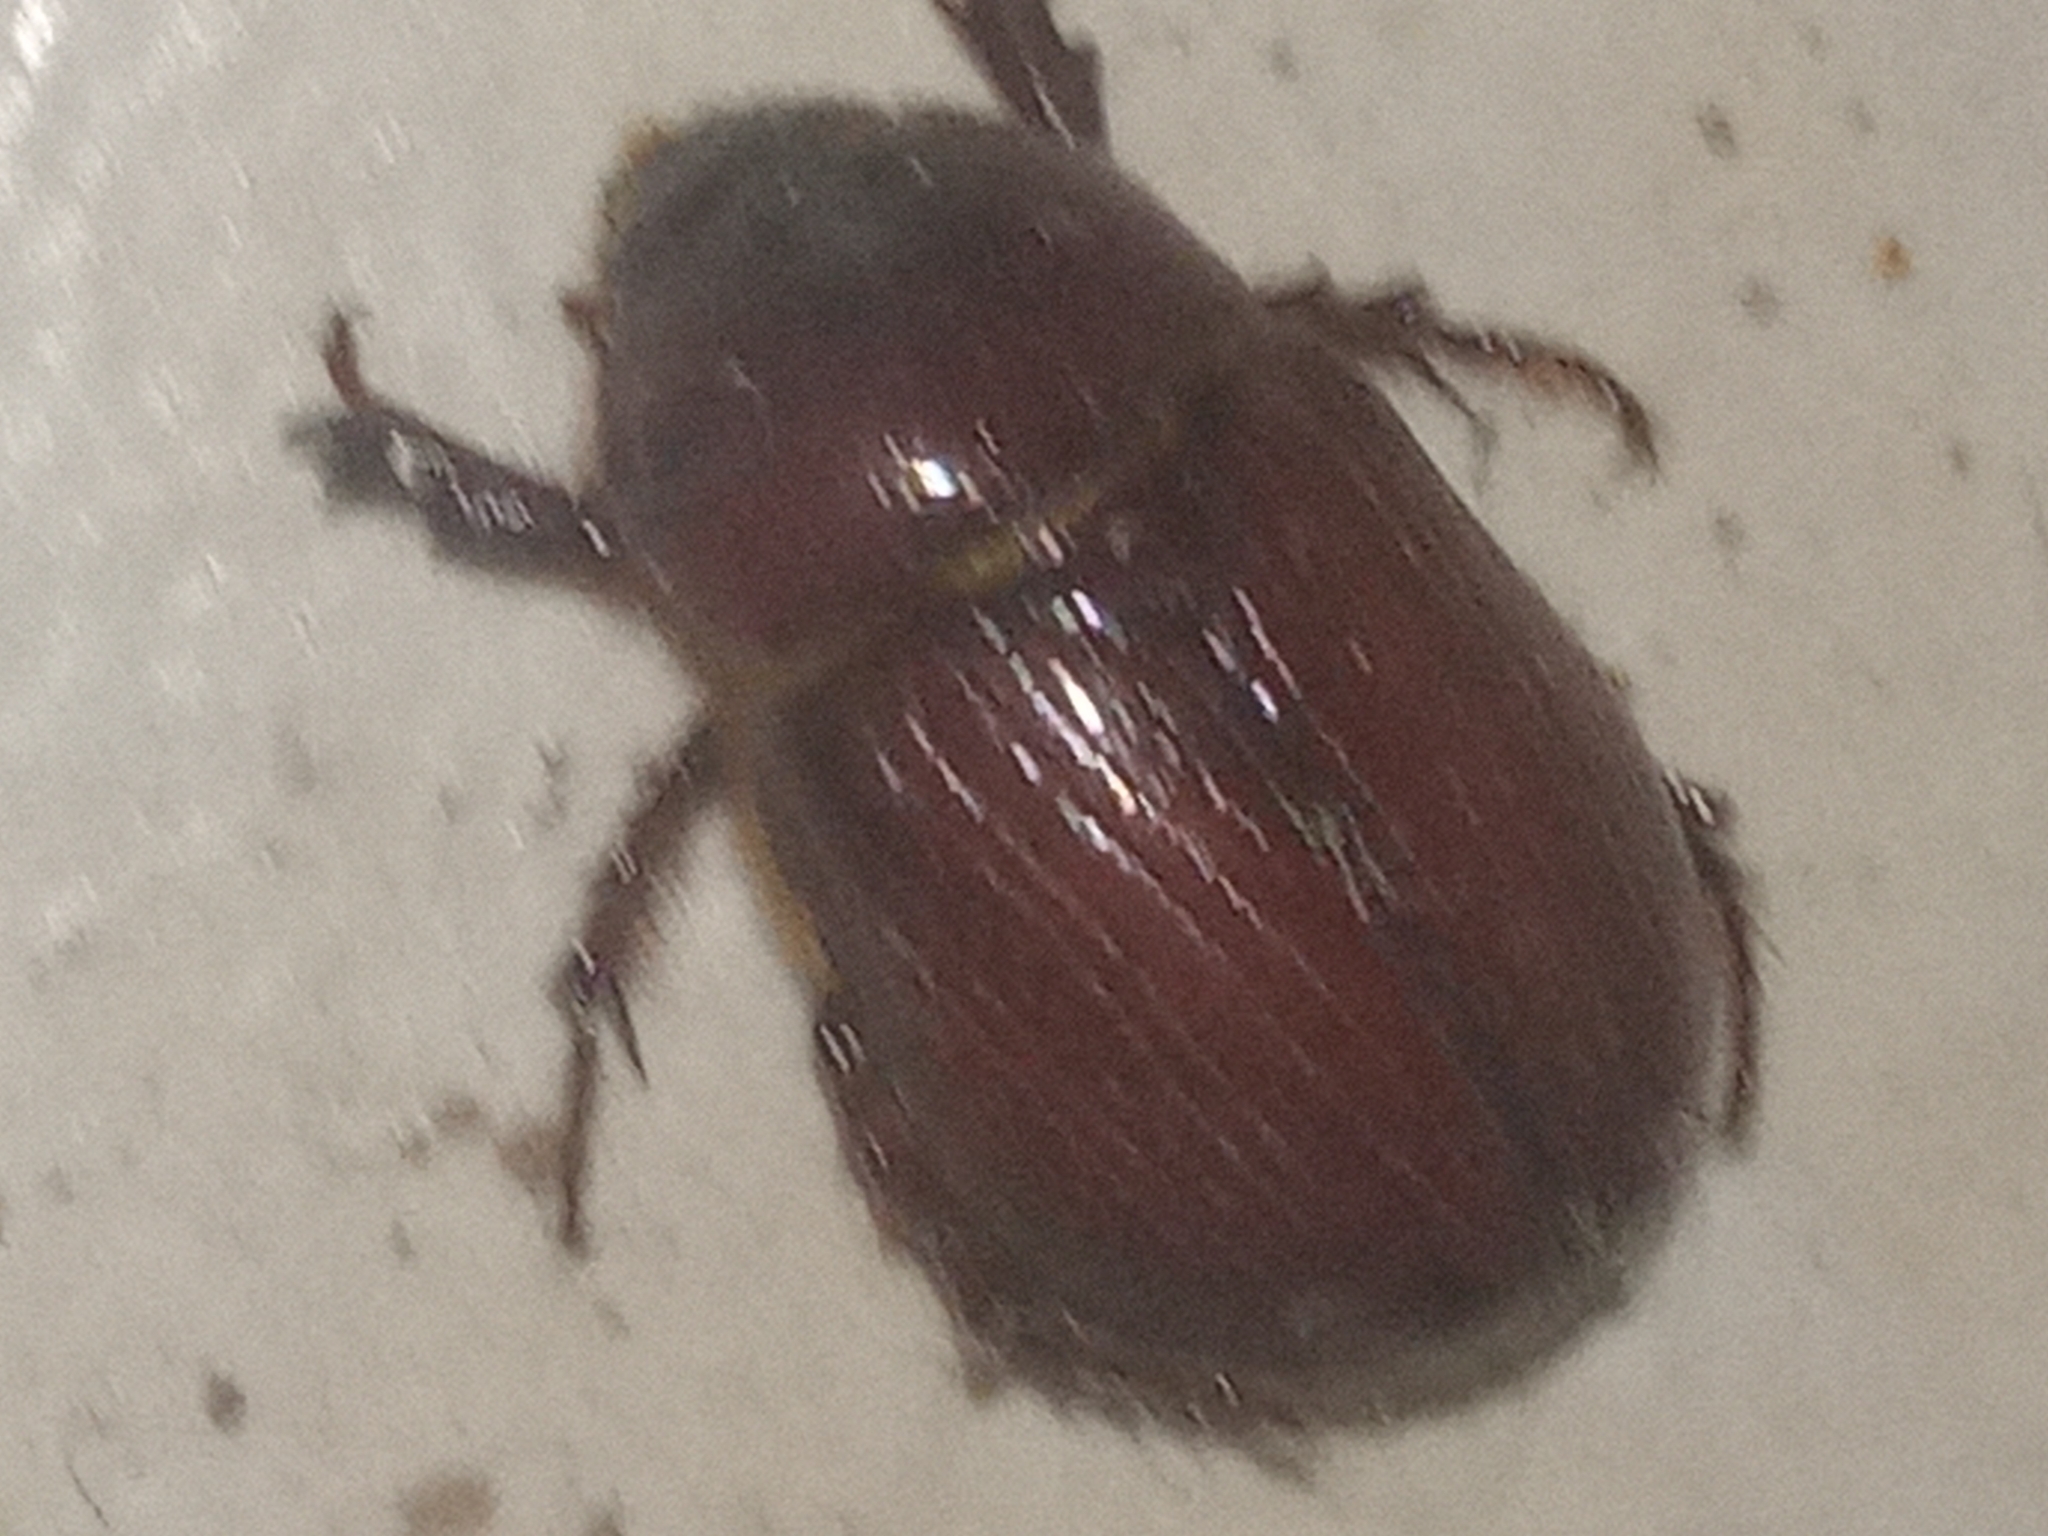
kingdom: Animalia
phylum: Arthropoda
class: Insecta
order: Coleoptera
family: Scarabaeidae
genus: Ligyrus
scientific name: Ligyrus ruginasus
